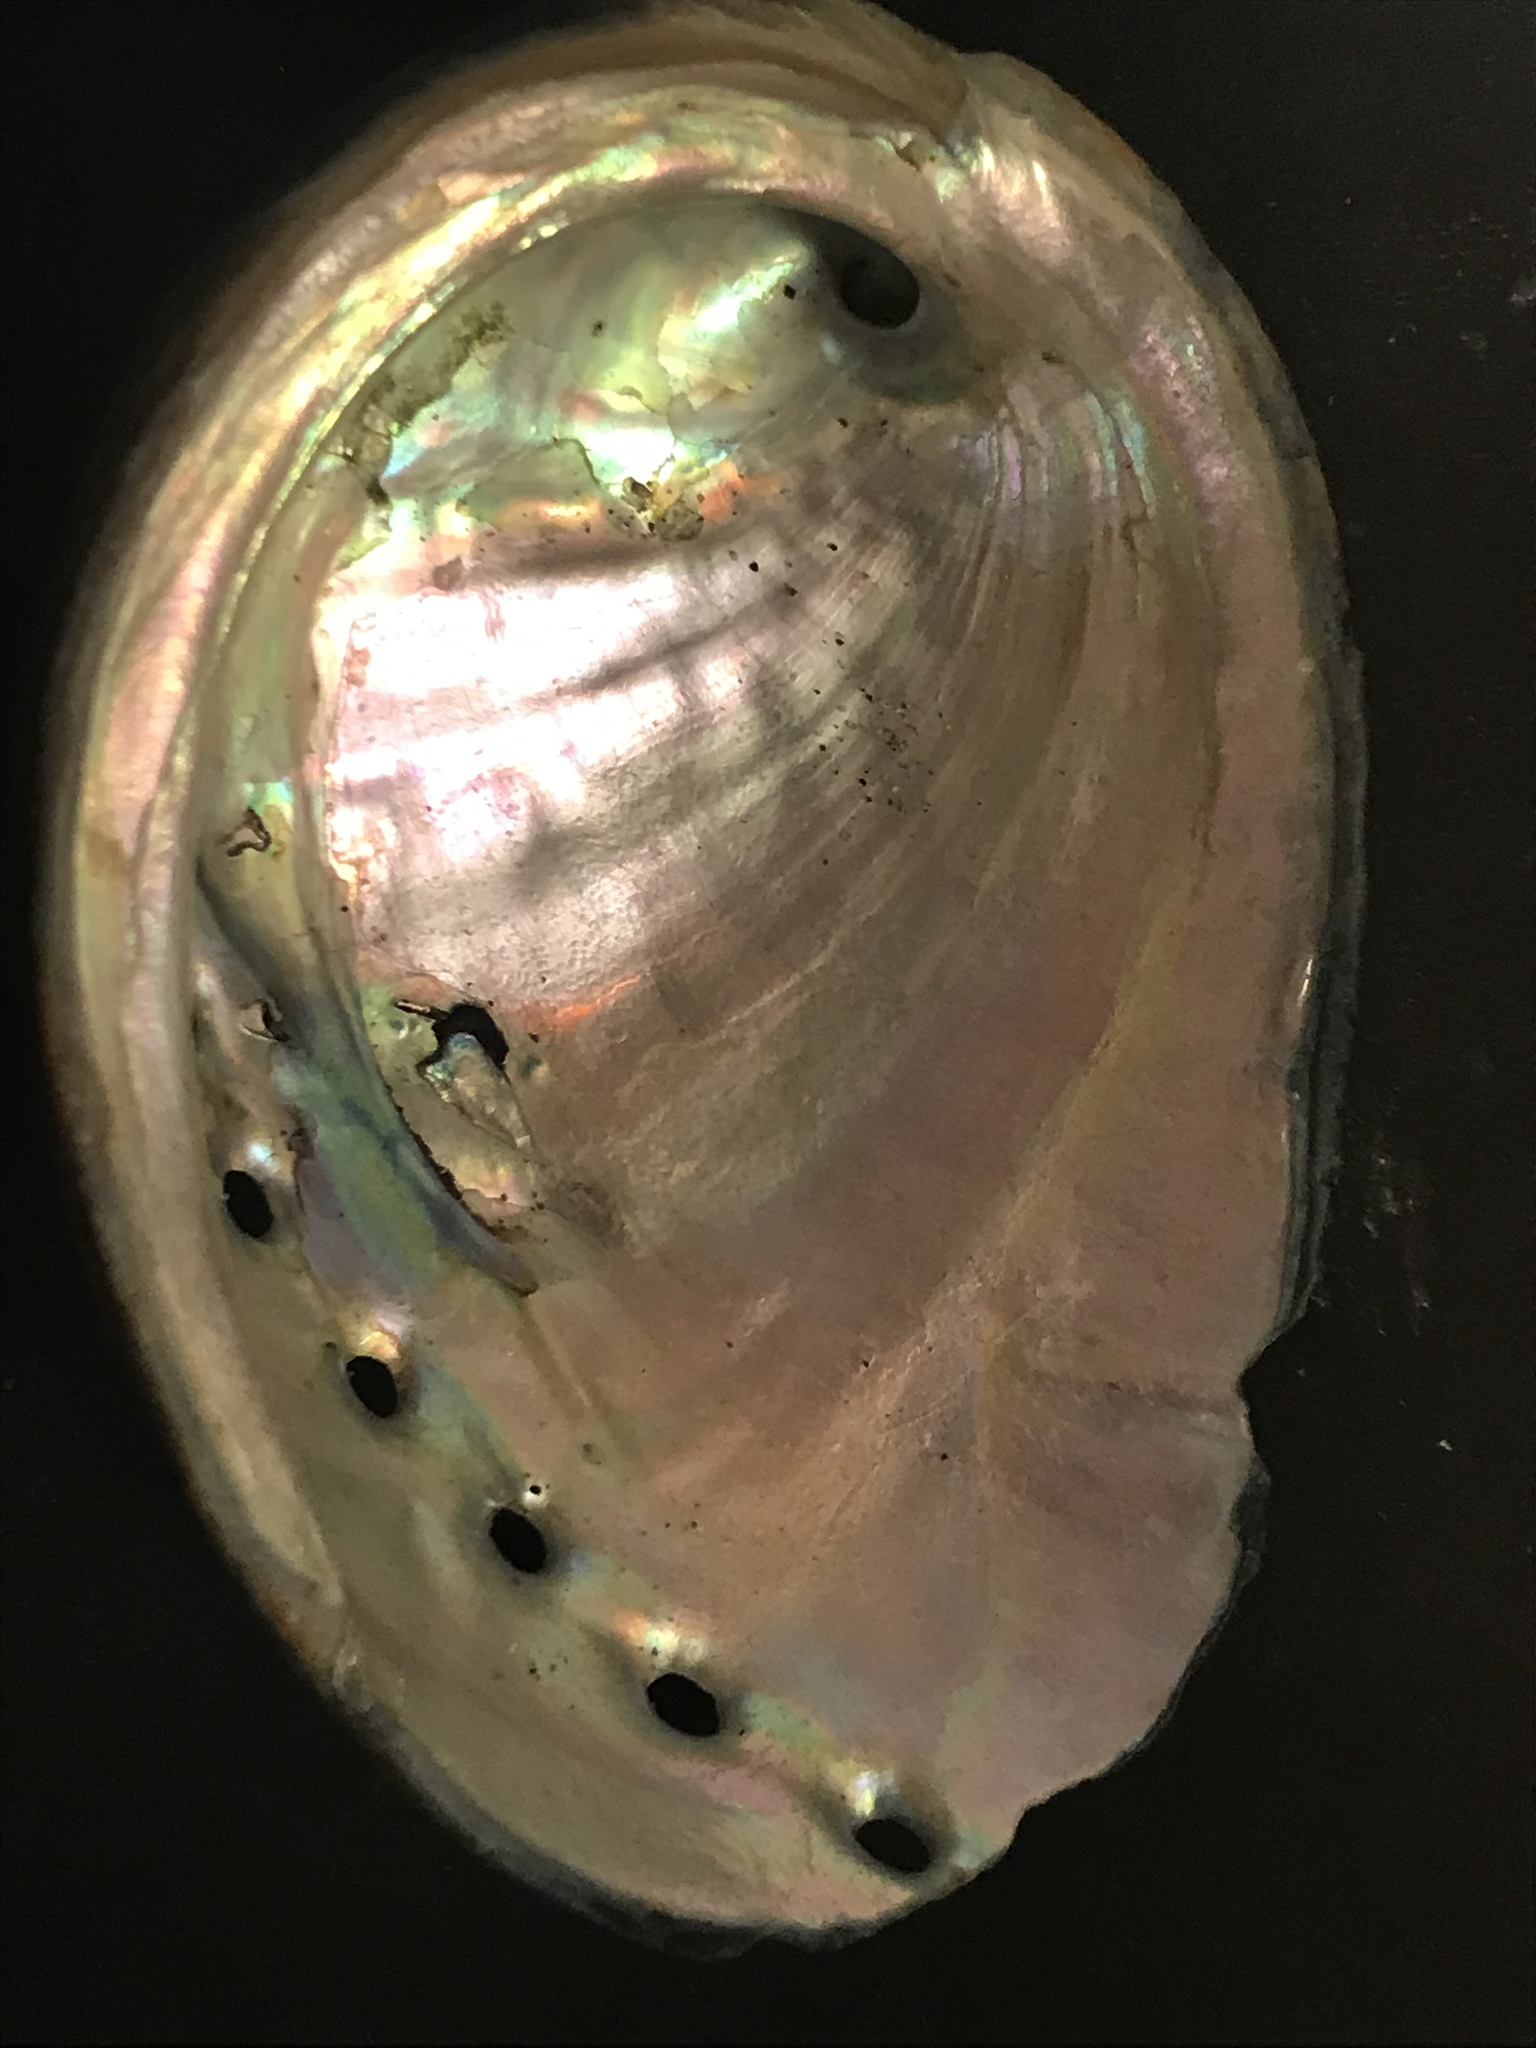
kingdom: Animalia
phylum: Mollusca
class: Gastropoda
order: Lepetellida
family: Haliotidae
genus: Haliotis
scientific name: Haliotis cracherodii
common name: Black abalone
